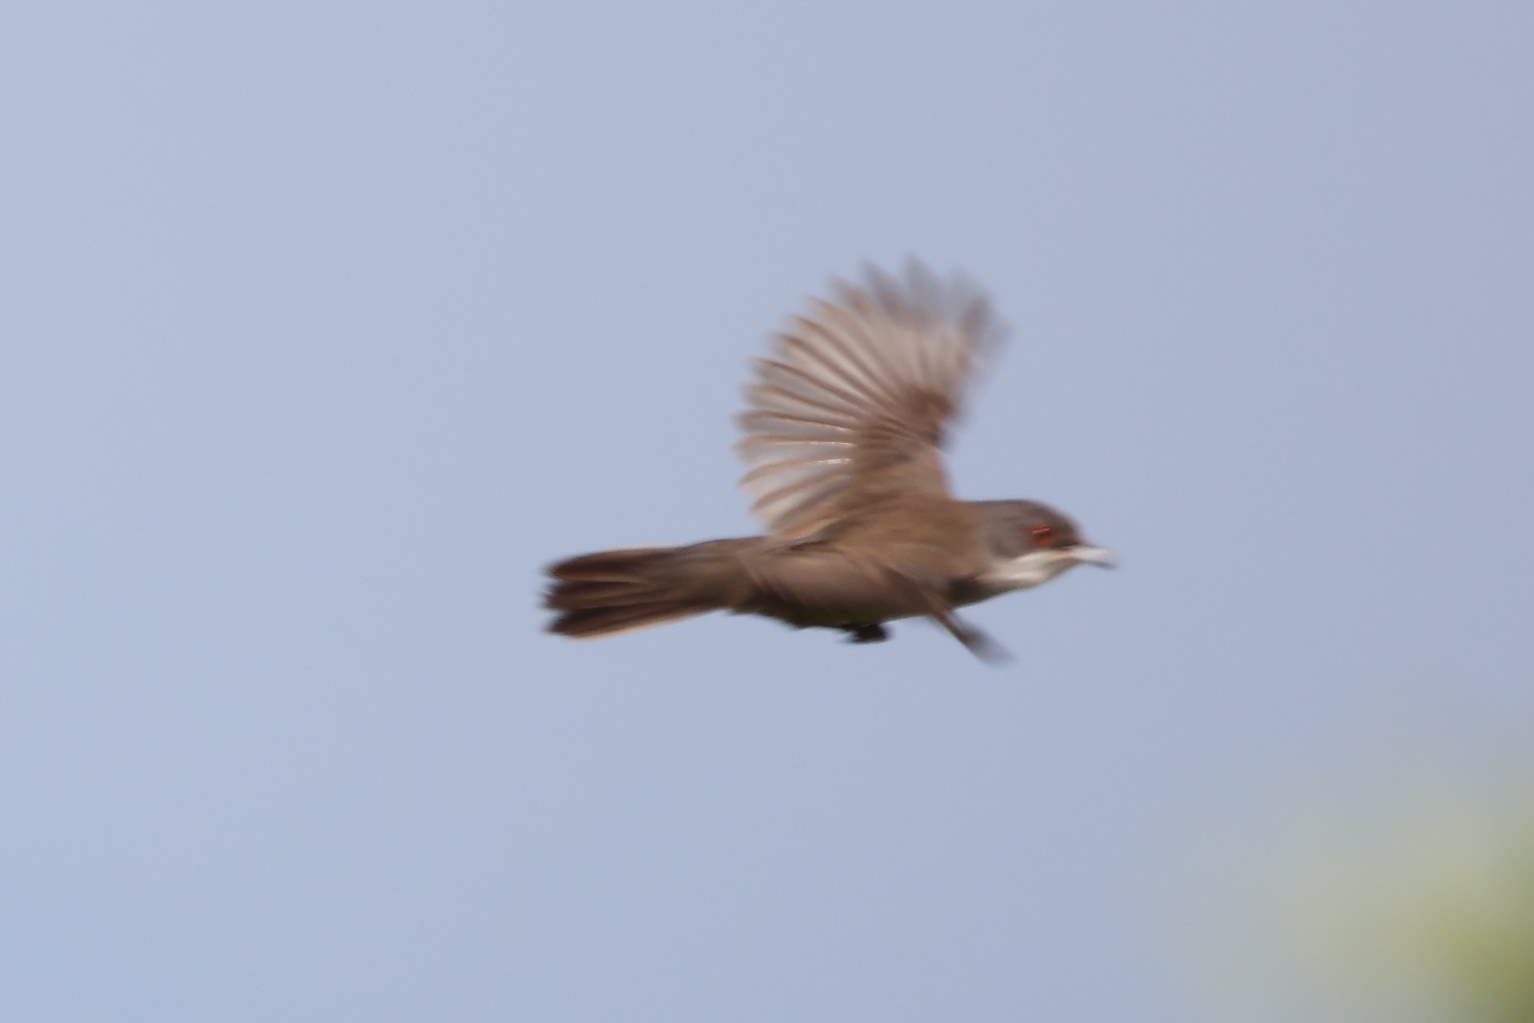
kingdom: Animalia
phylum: Chordata
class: Aves
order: Passeriformes
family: Sylviidae
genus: Curruca
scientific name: Curruca melanocephala
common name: Sardinian warbler
